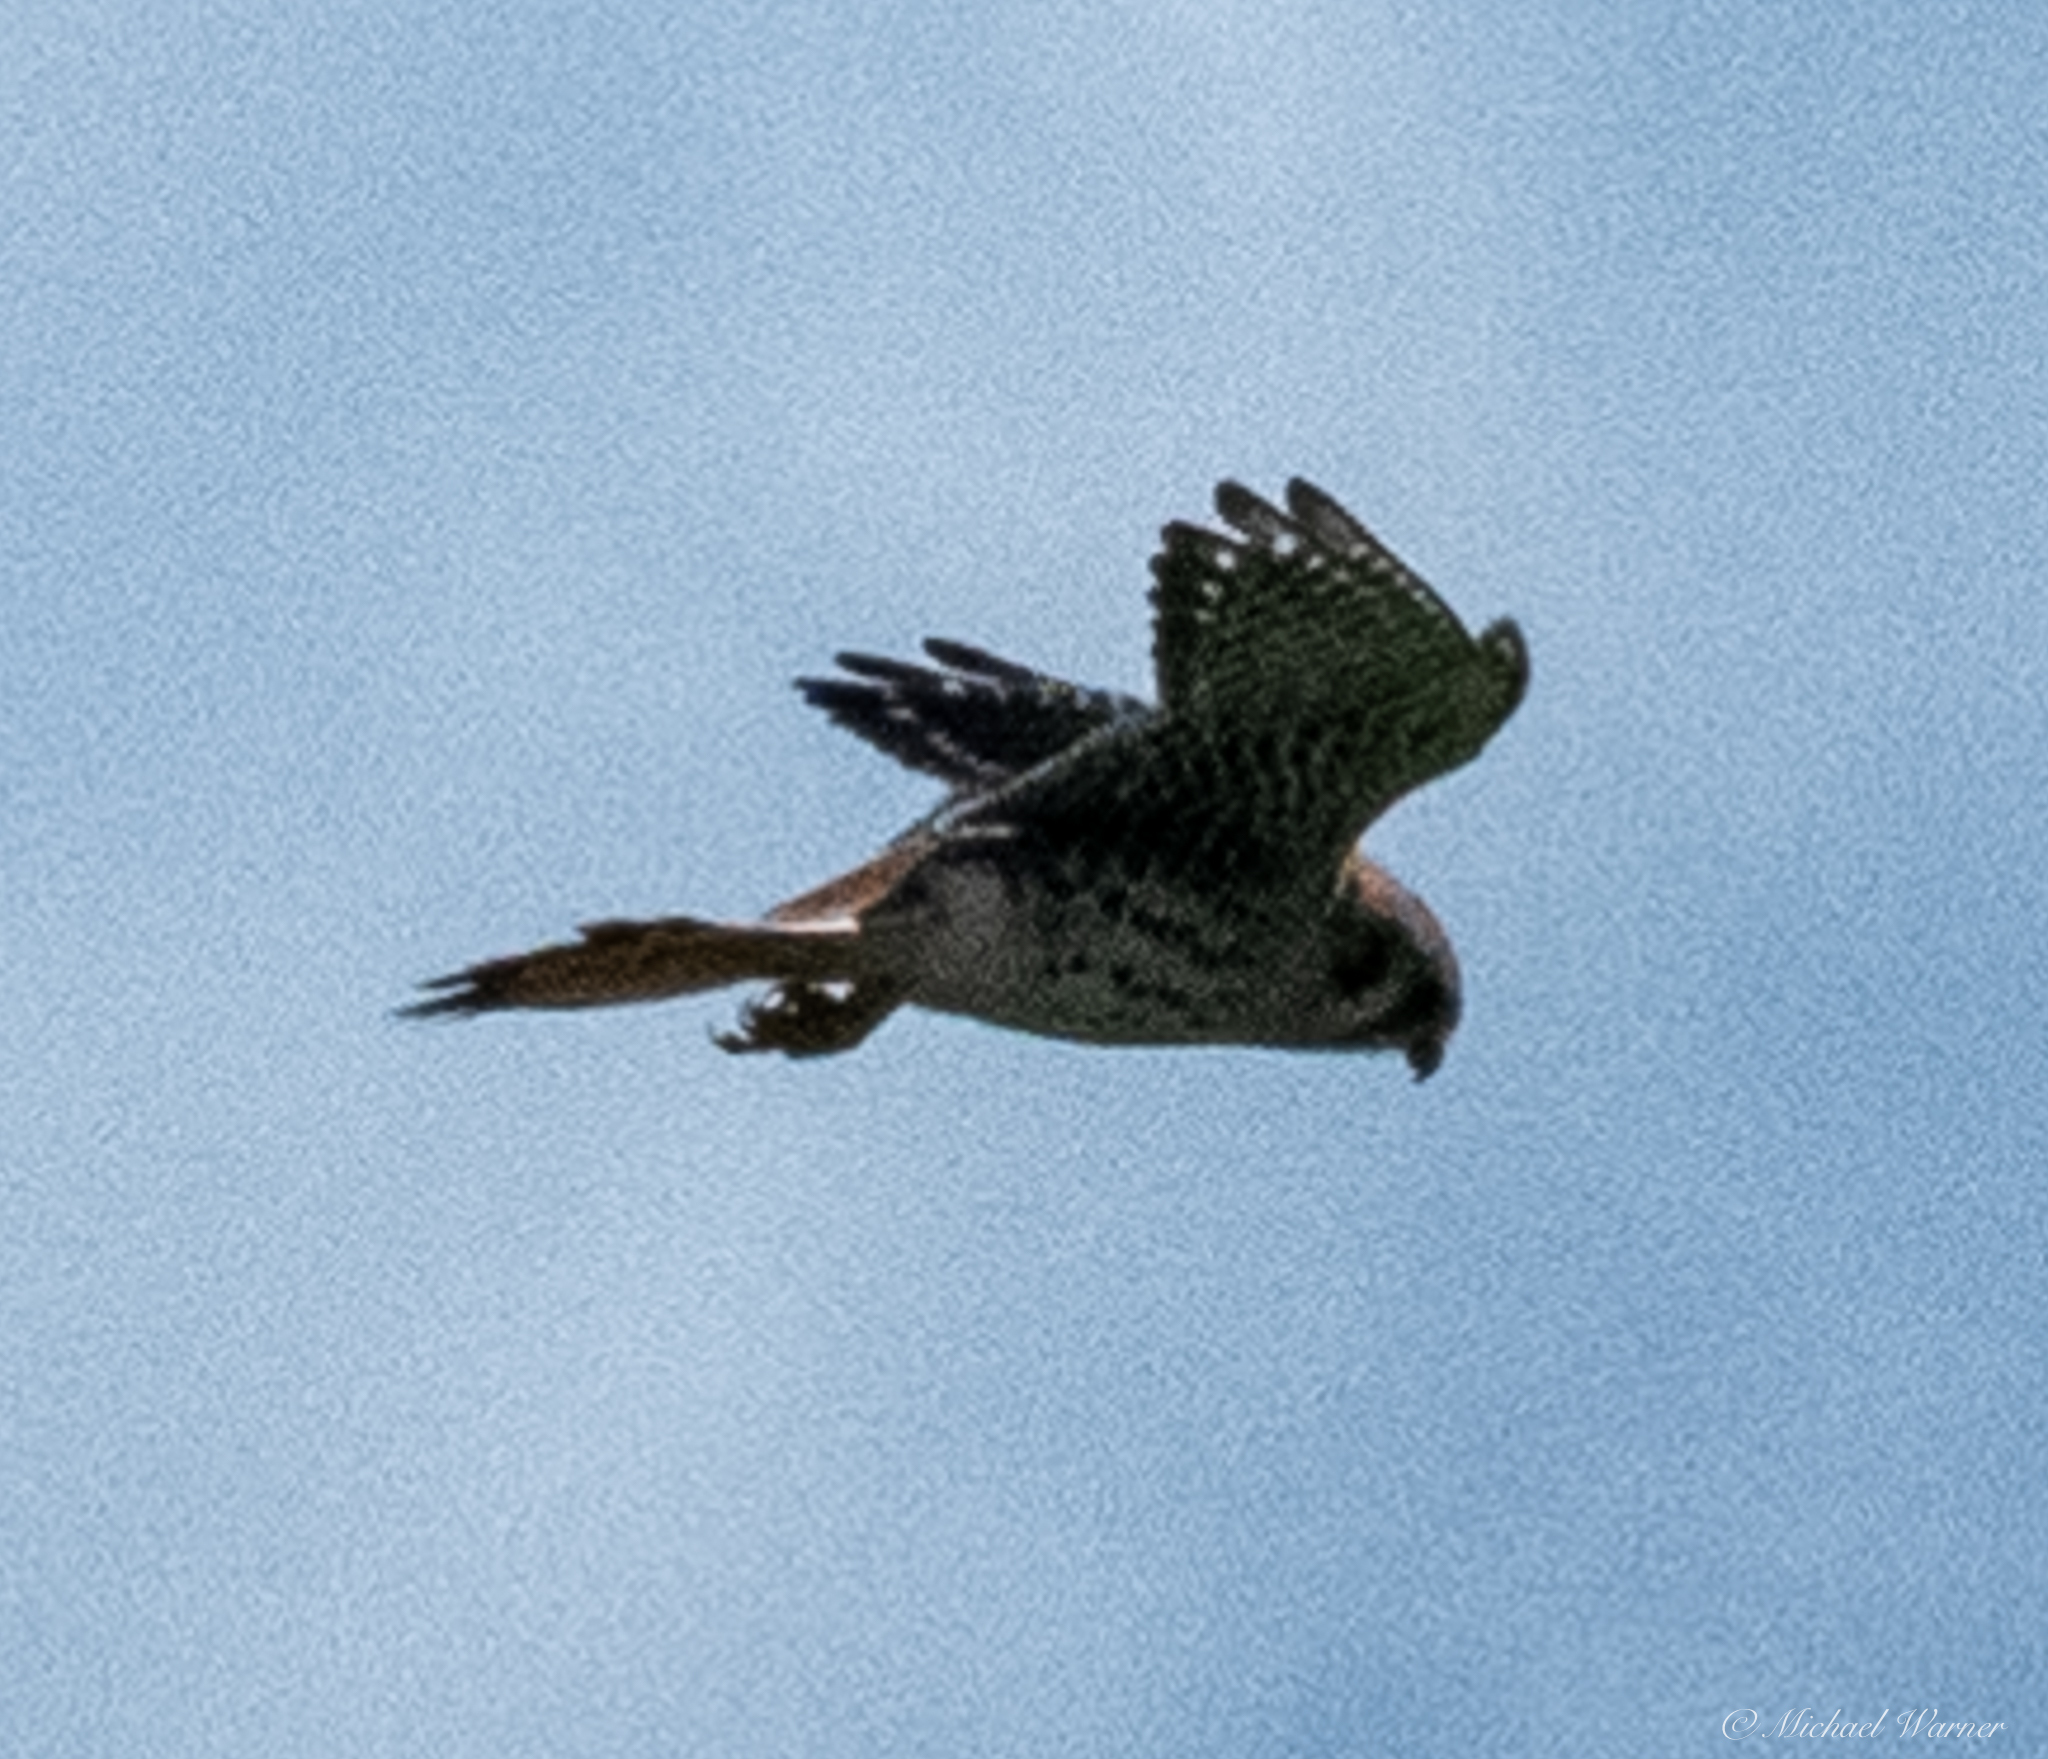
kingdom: Animalia
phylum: Chordata
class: Aves
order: Falconiformes
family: Falconidae
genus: Falco
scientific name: Falco sparverius
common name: American kestrel
